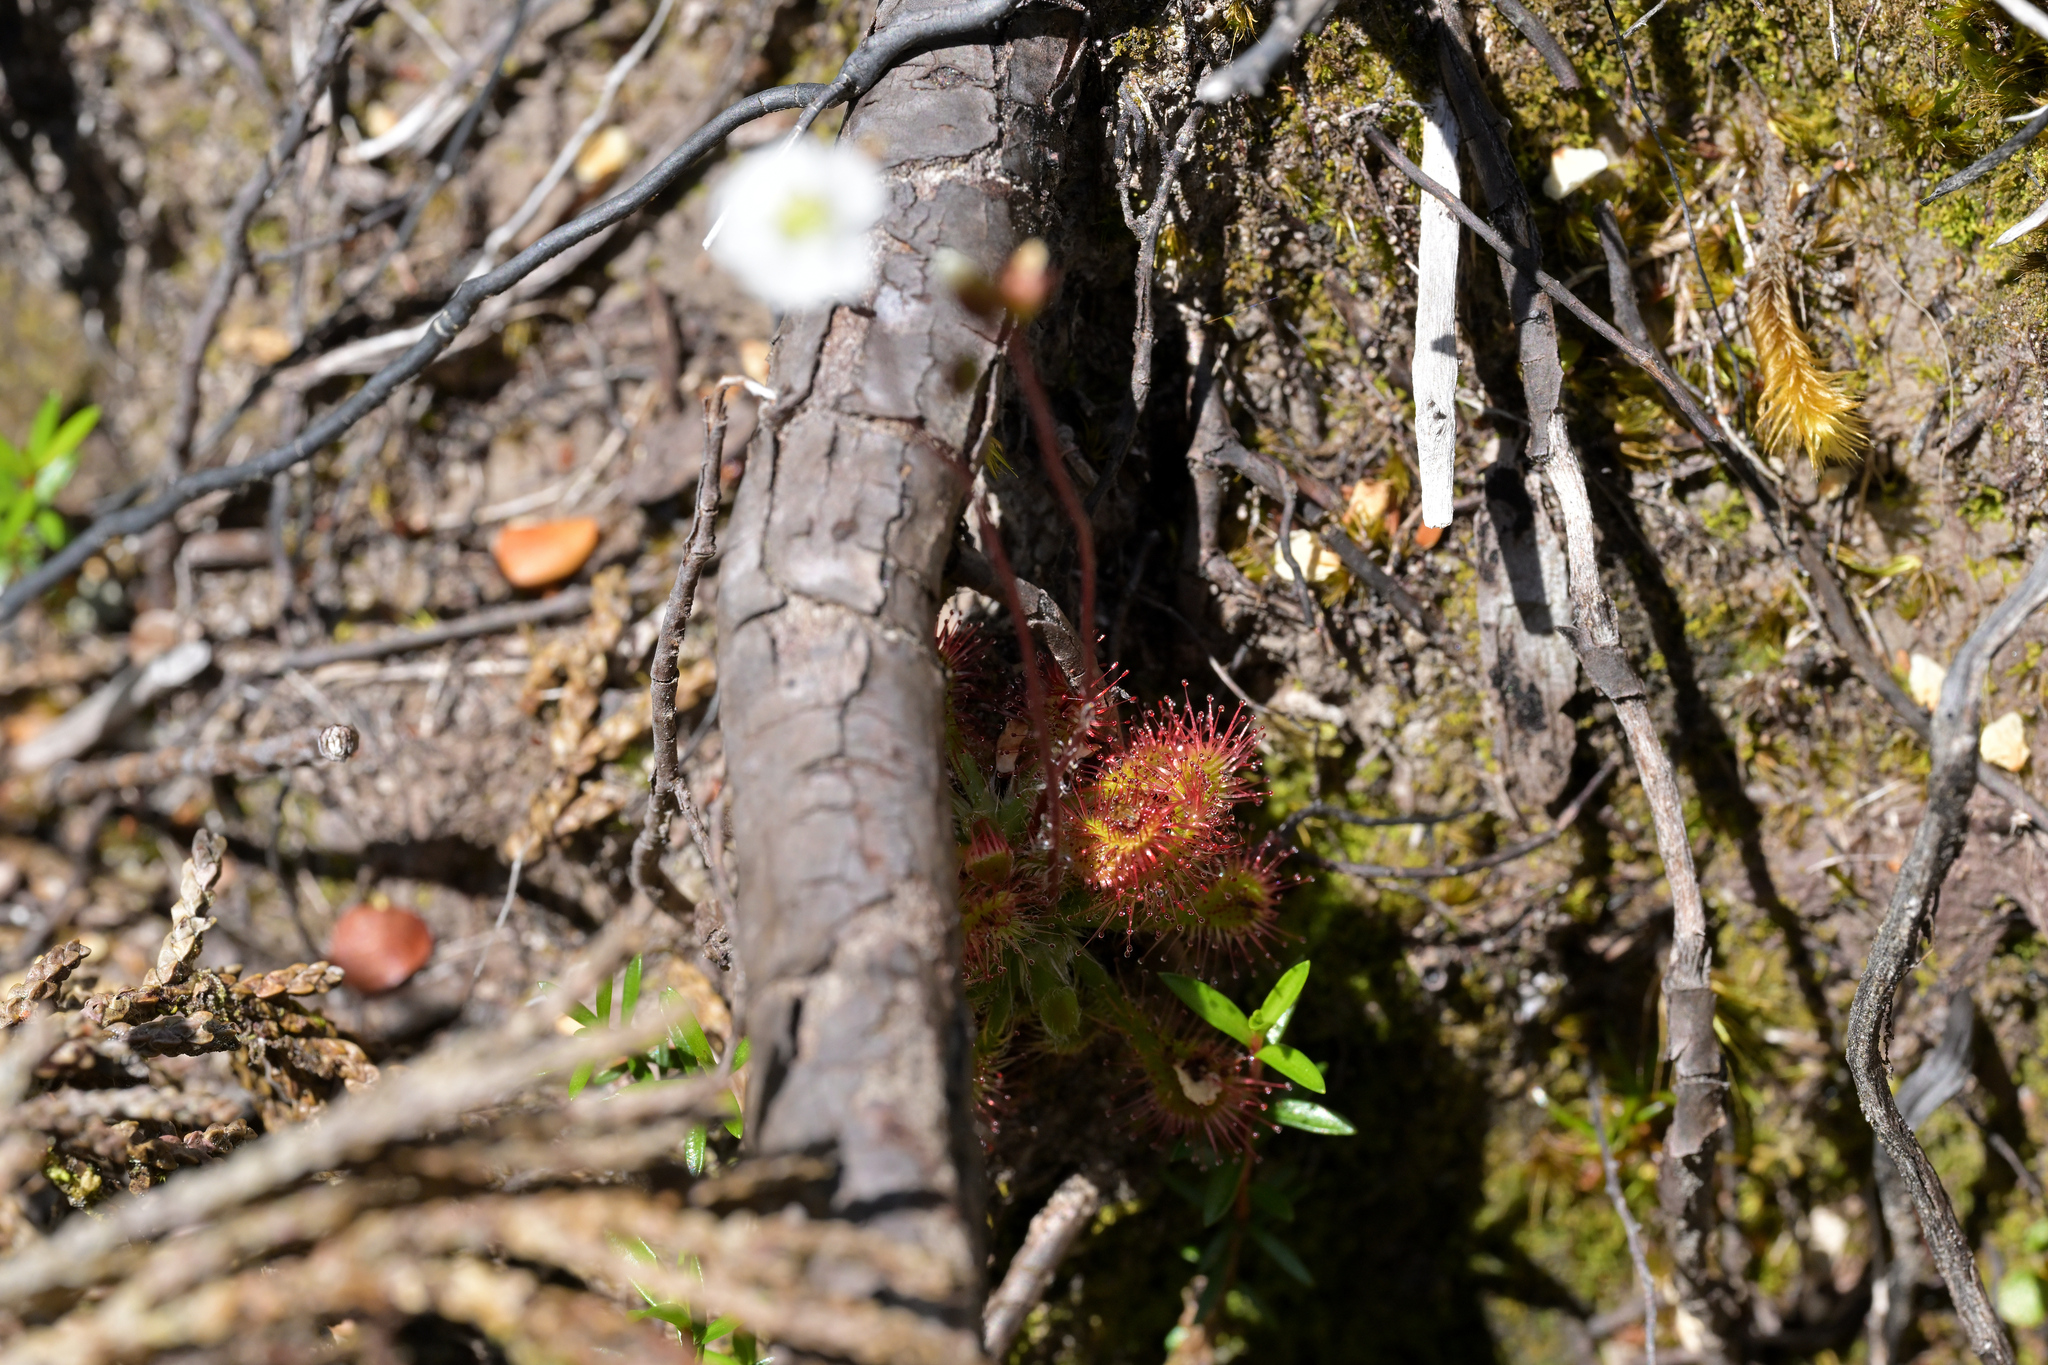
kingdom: Plantae
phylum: Tracheophyta
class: Magnoliopsida
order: Caryophyllales
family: Droseraceae
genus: Drosera
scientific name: Drosera spatulata
